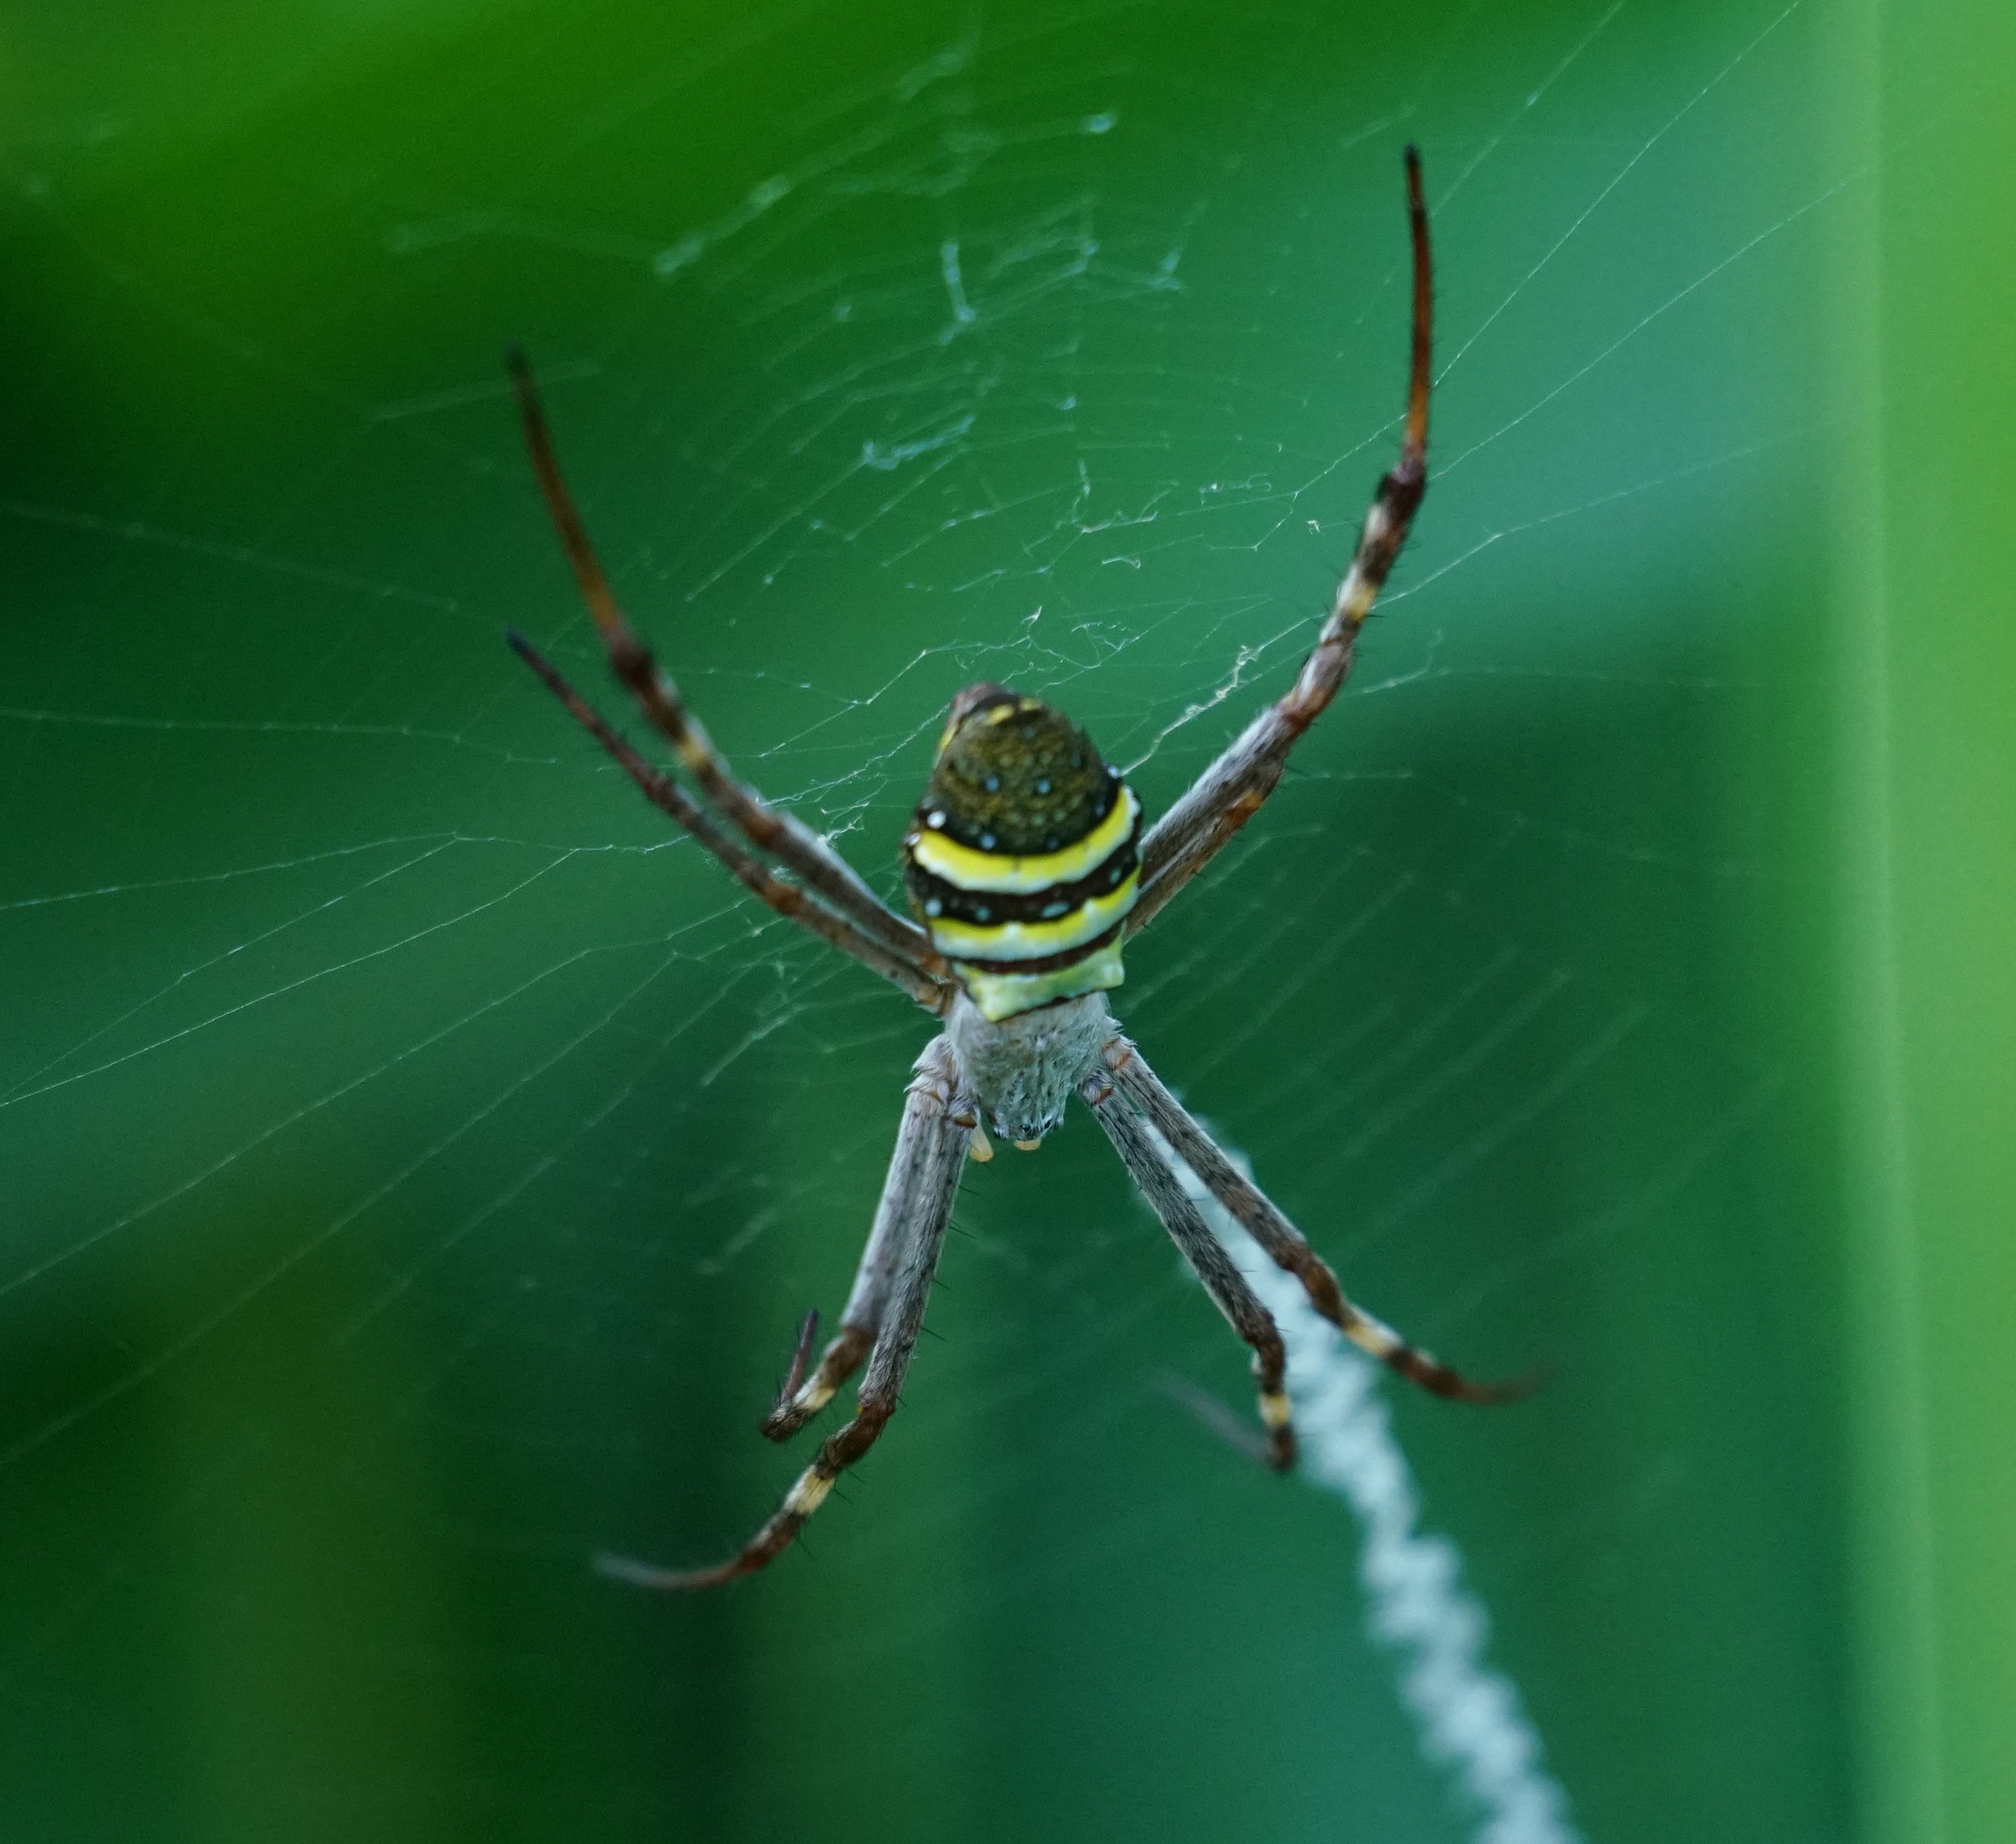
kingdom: Animalia
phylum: Arthropoda
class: Arachnida
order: Araneae
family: Araneidae
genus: Argiope
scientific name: Argiope keyserlingi
